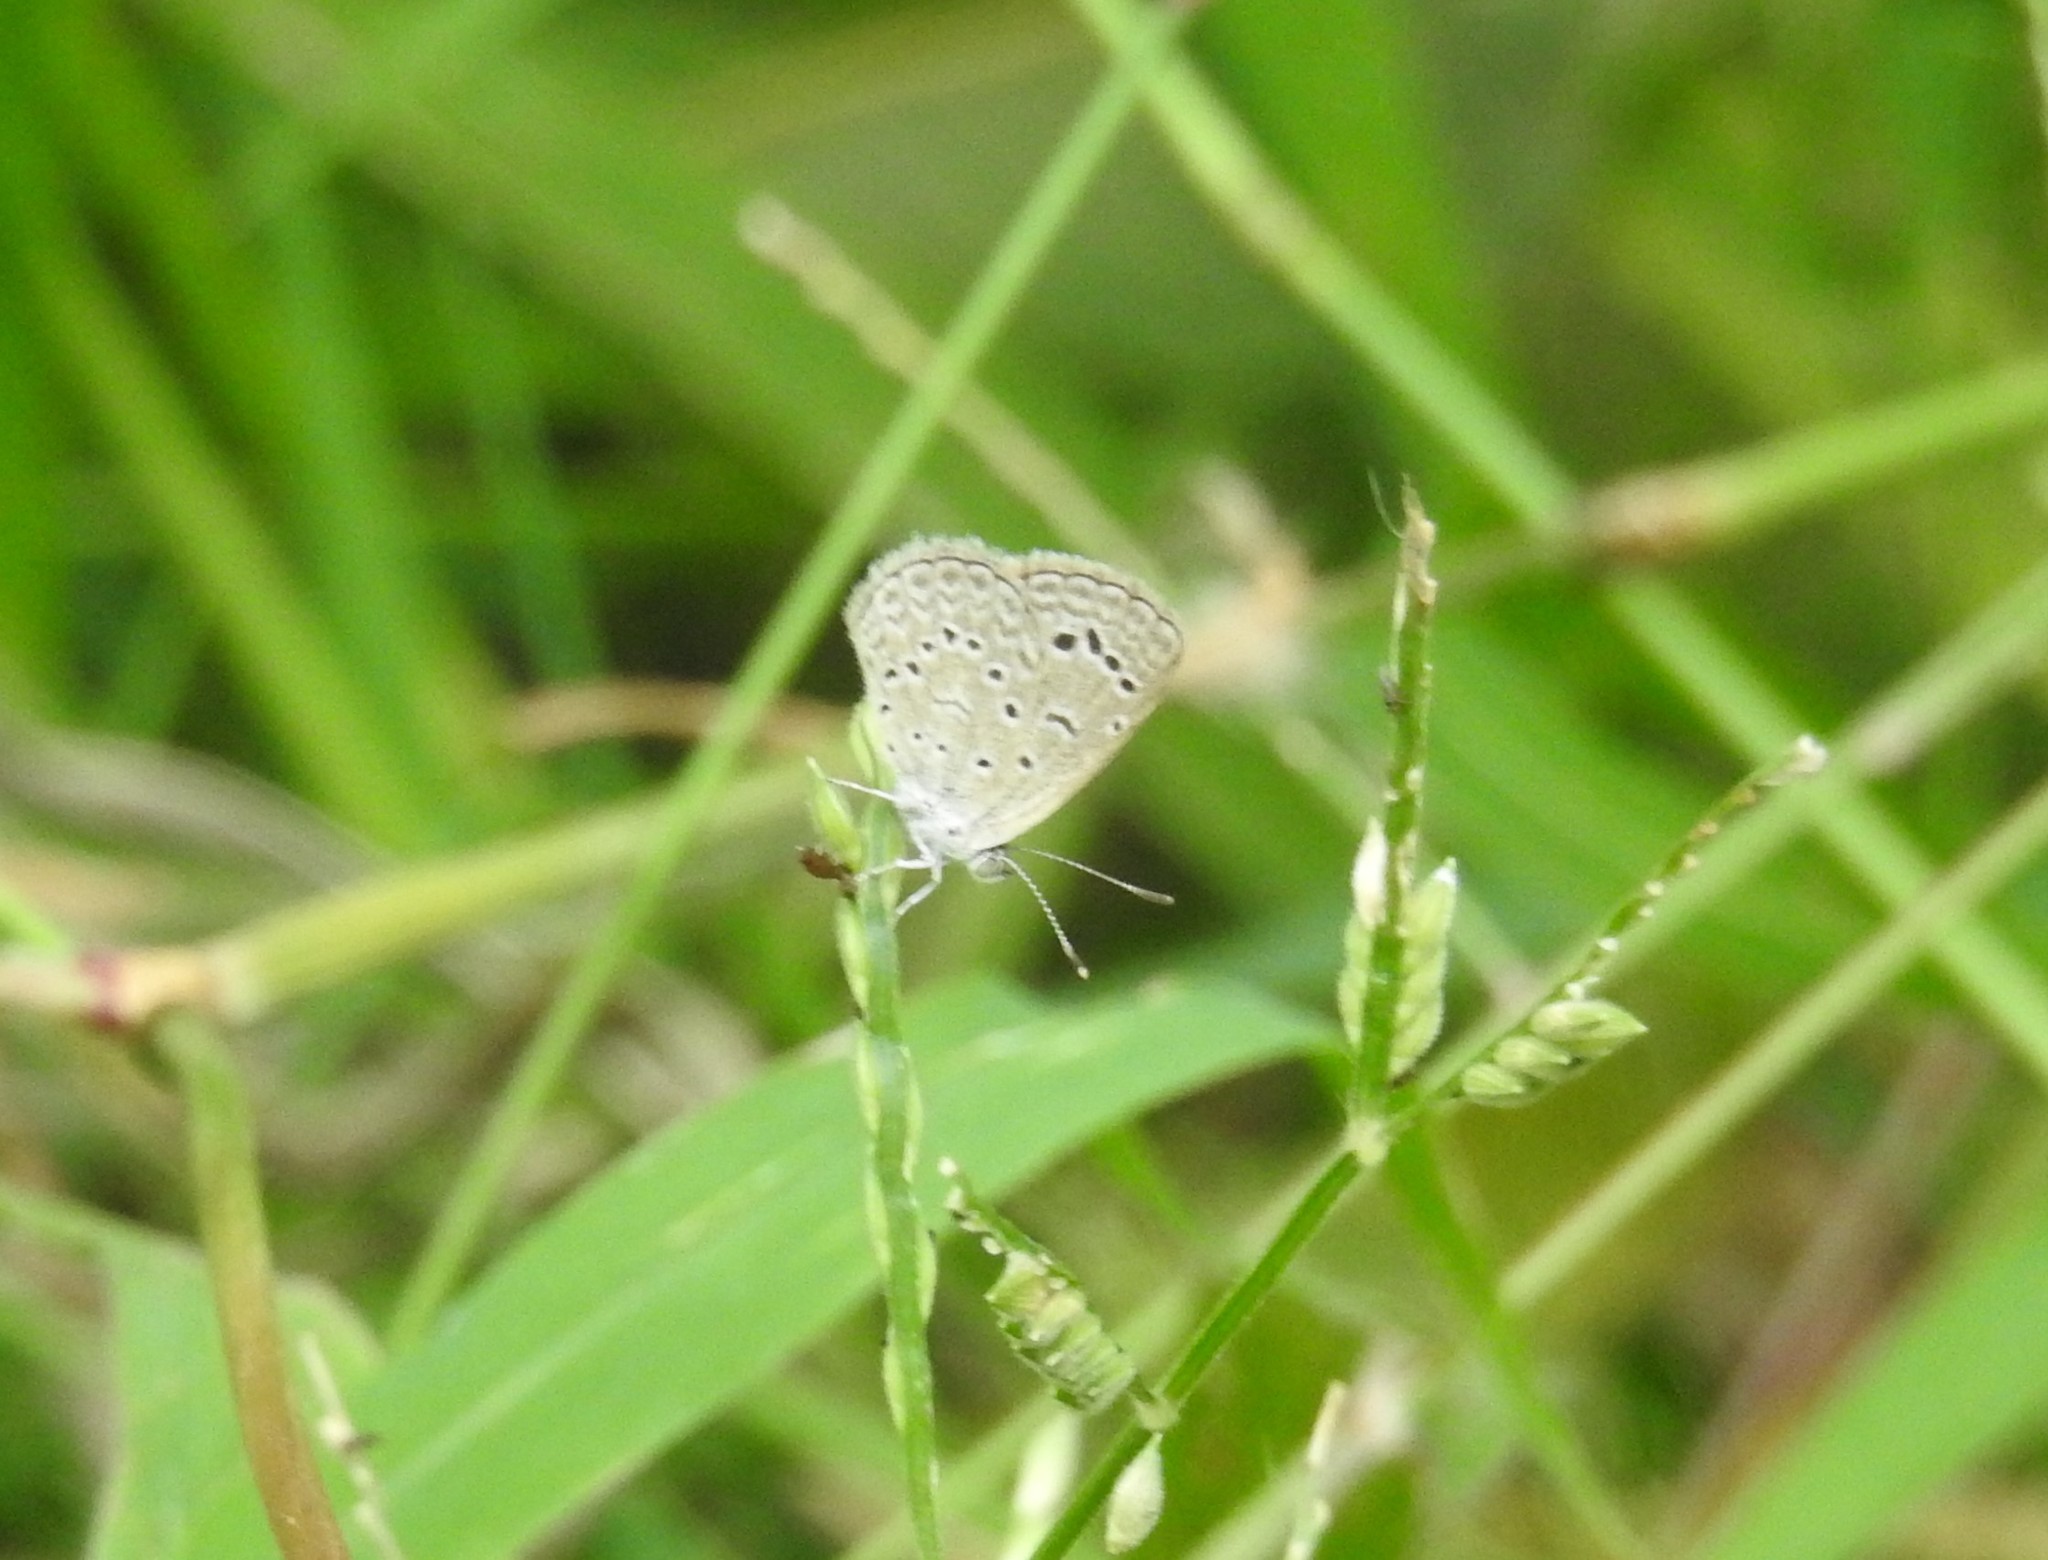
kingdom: Animalia
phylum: Arthropoda
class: Insecta
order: Lepidoptera
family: Lycaenidae
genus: Zizeeria
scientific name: Zizeeria karsandra
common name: Dark grass blue
